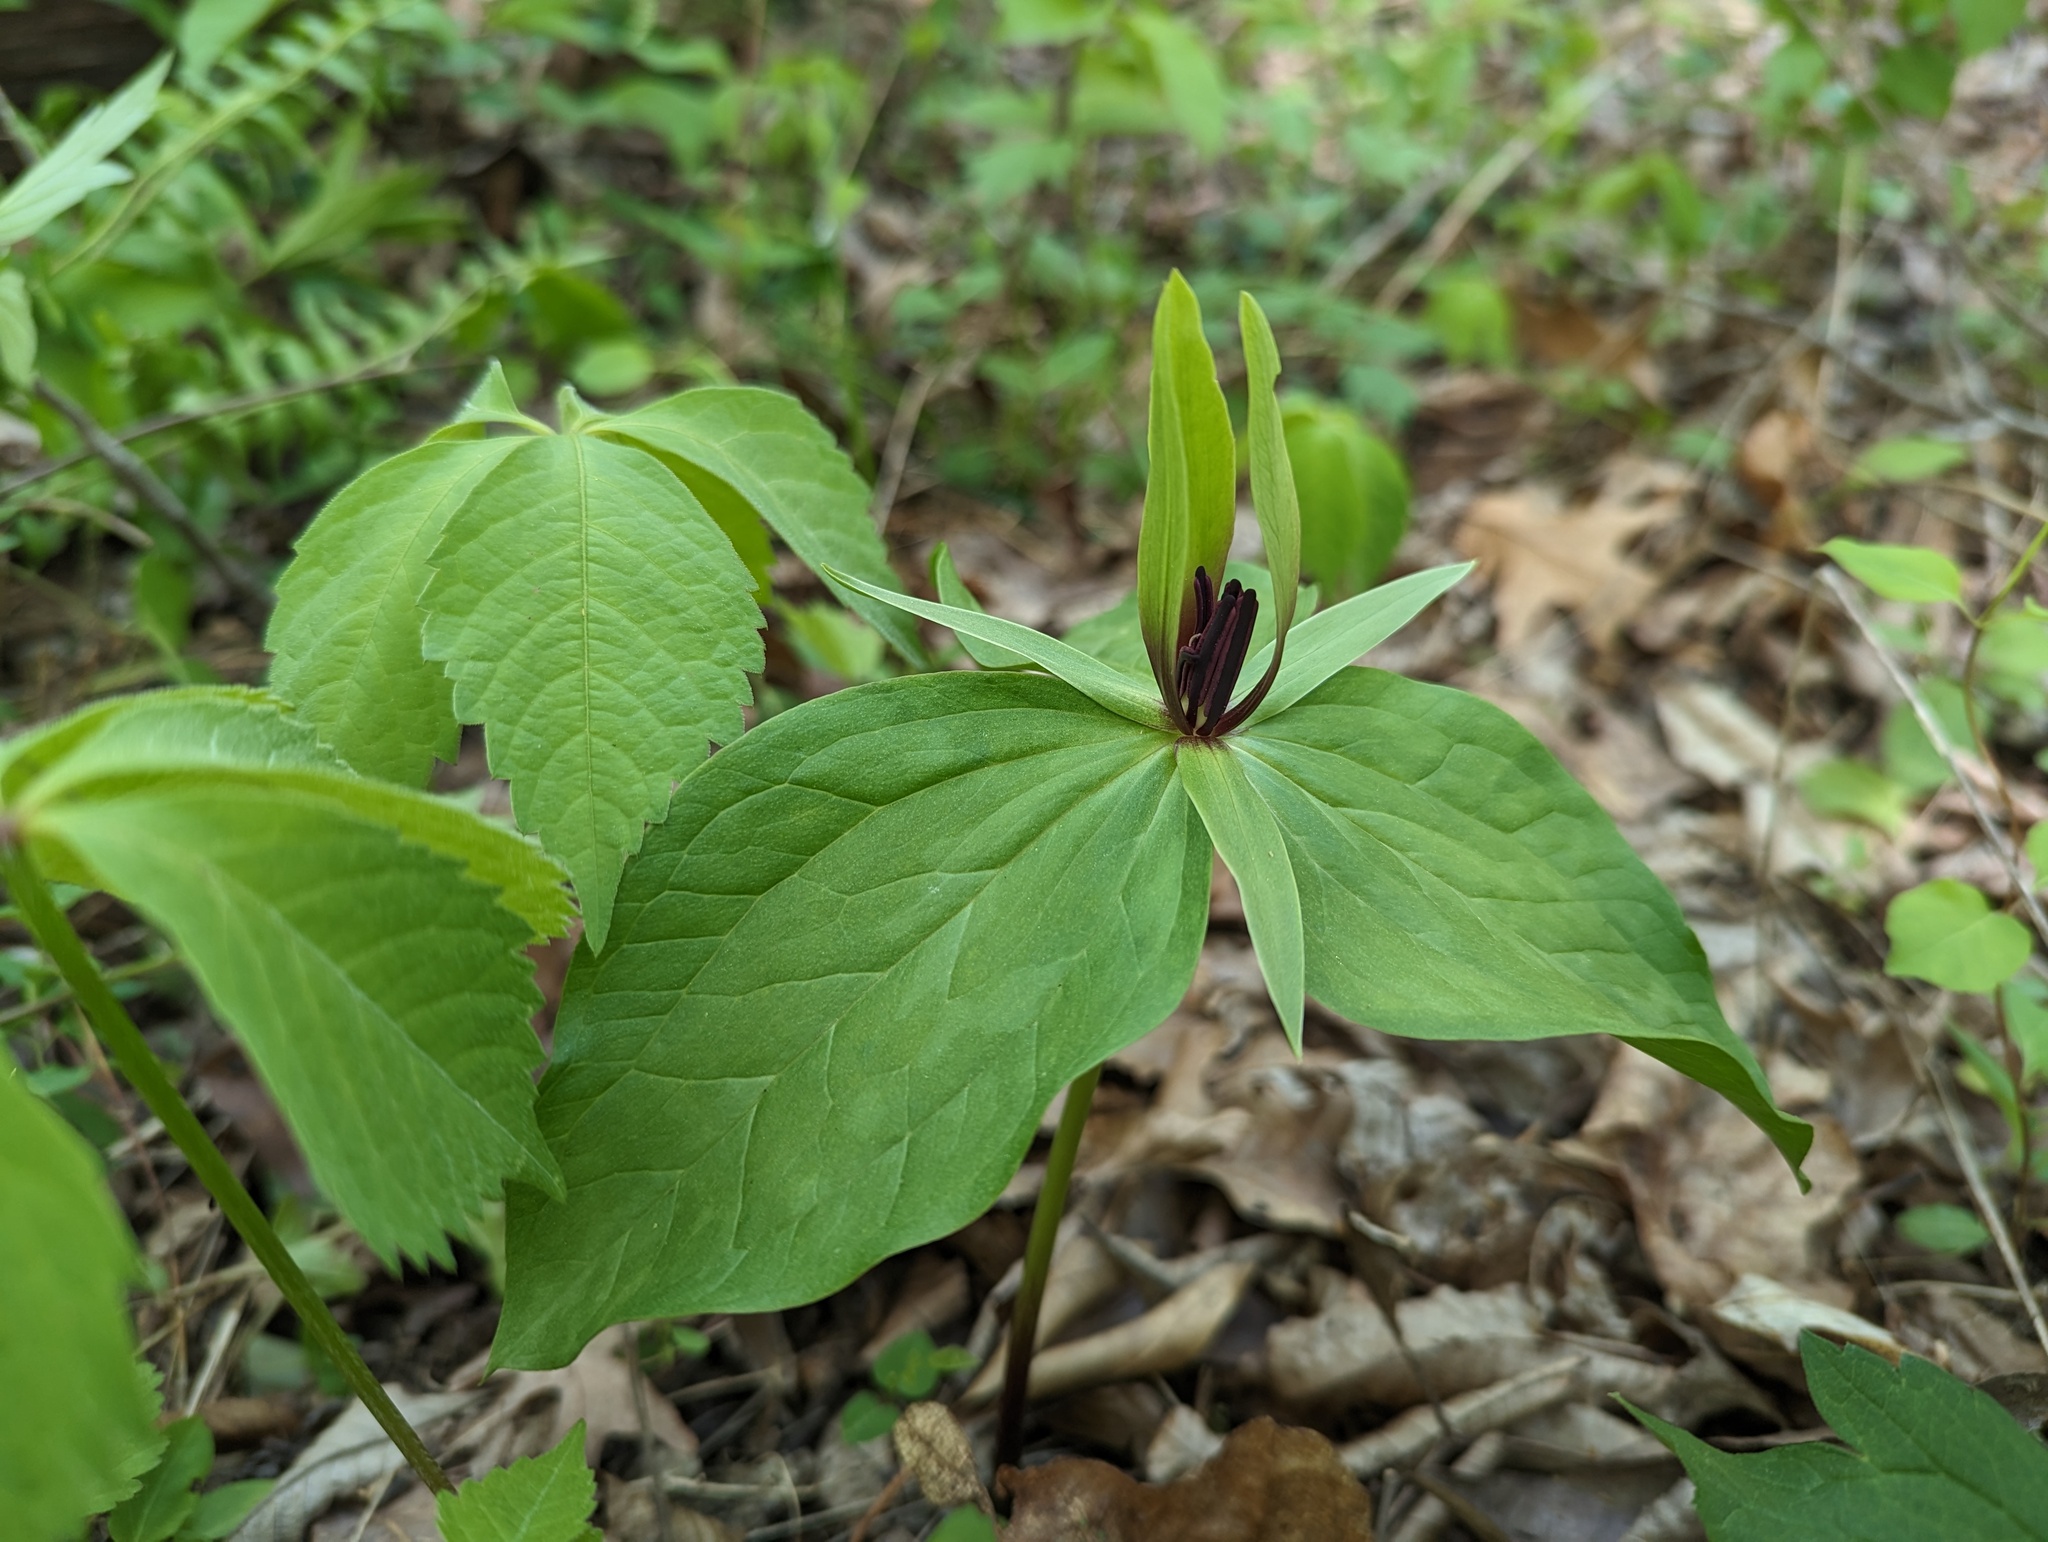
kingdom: Plantae
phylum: Tracheophyta
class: Liliopsida
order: Liliales
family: Melanthiaceae
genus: Trillium
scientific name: Trillium viride
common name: Green trillium
